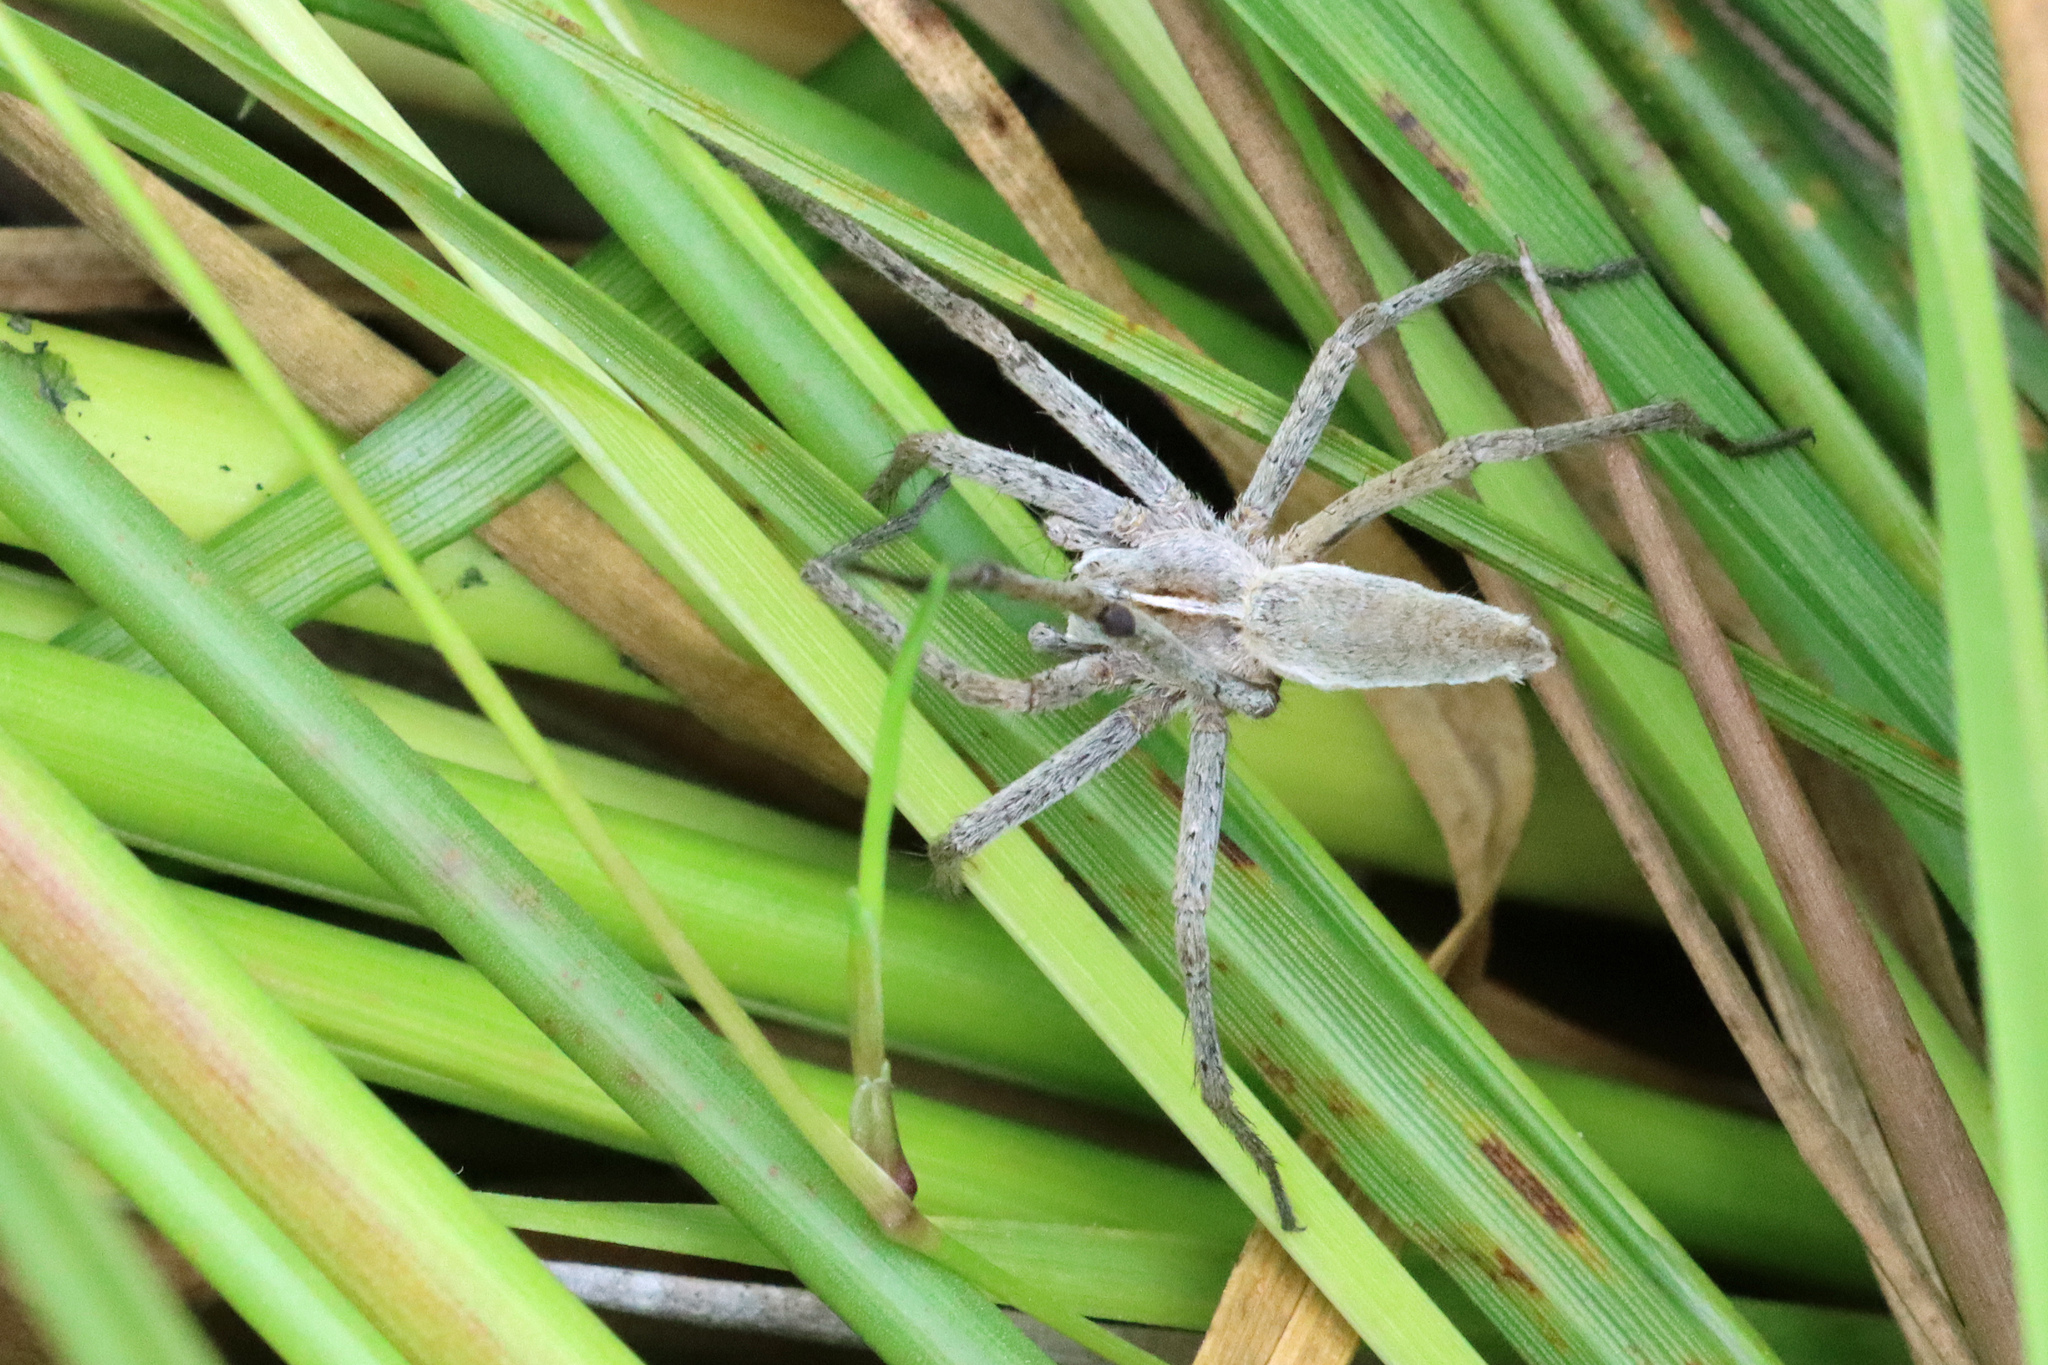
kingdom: Animalia
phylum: Arthropoda
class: Arachnida
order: Araneae
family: Pisauridae
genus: Pisaura
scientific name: Pisaura mirabilis
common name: Tent spider
